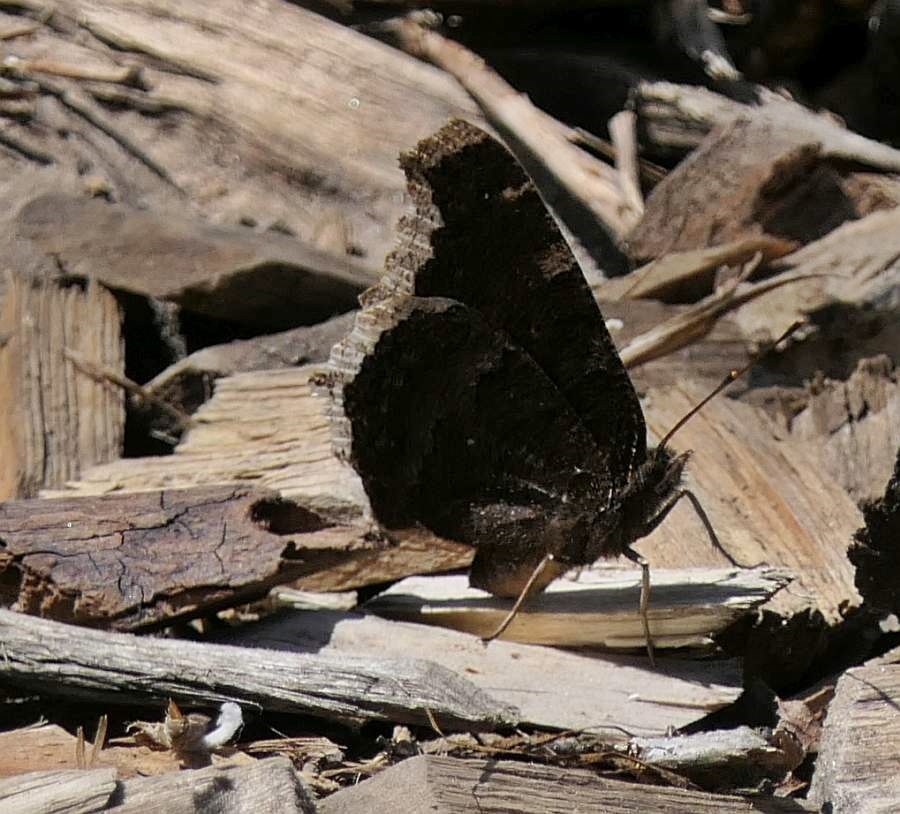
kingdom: Animalia
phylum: Arthropoda
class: Insecta
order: Lepidoptera
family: Nymphalidae
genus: Nymphalis
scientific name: Nymphalis antiopa
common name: Camberwell beauty
